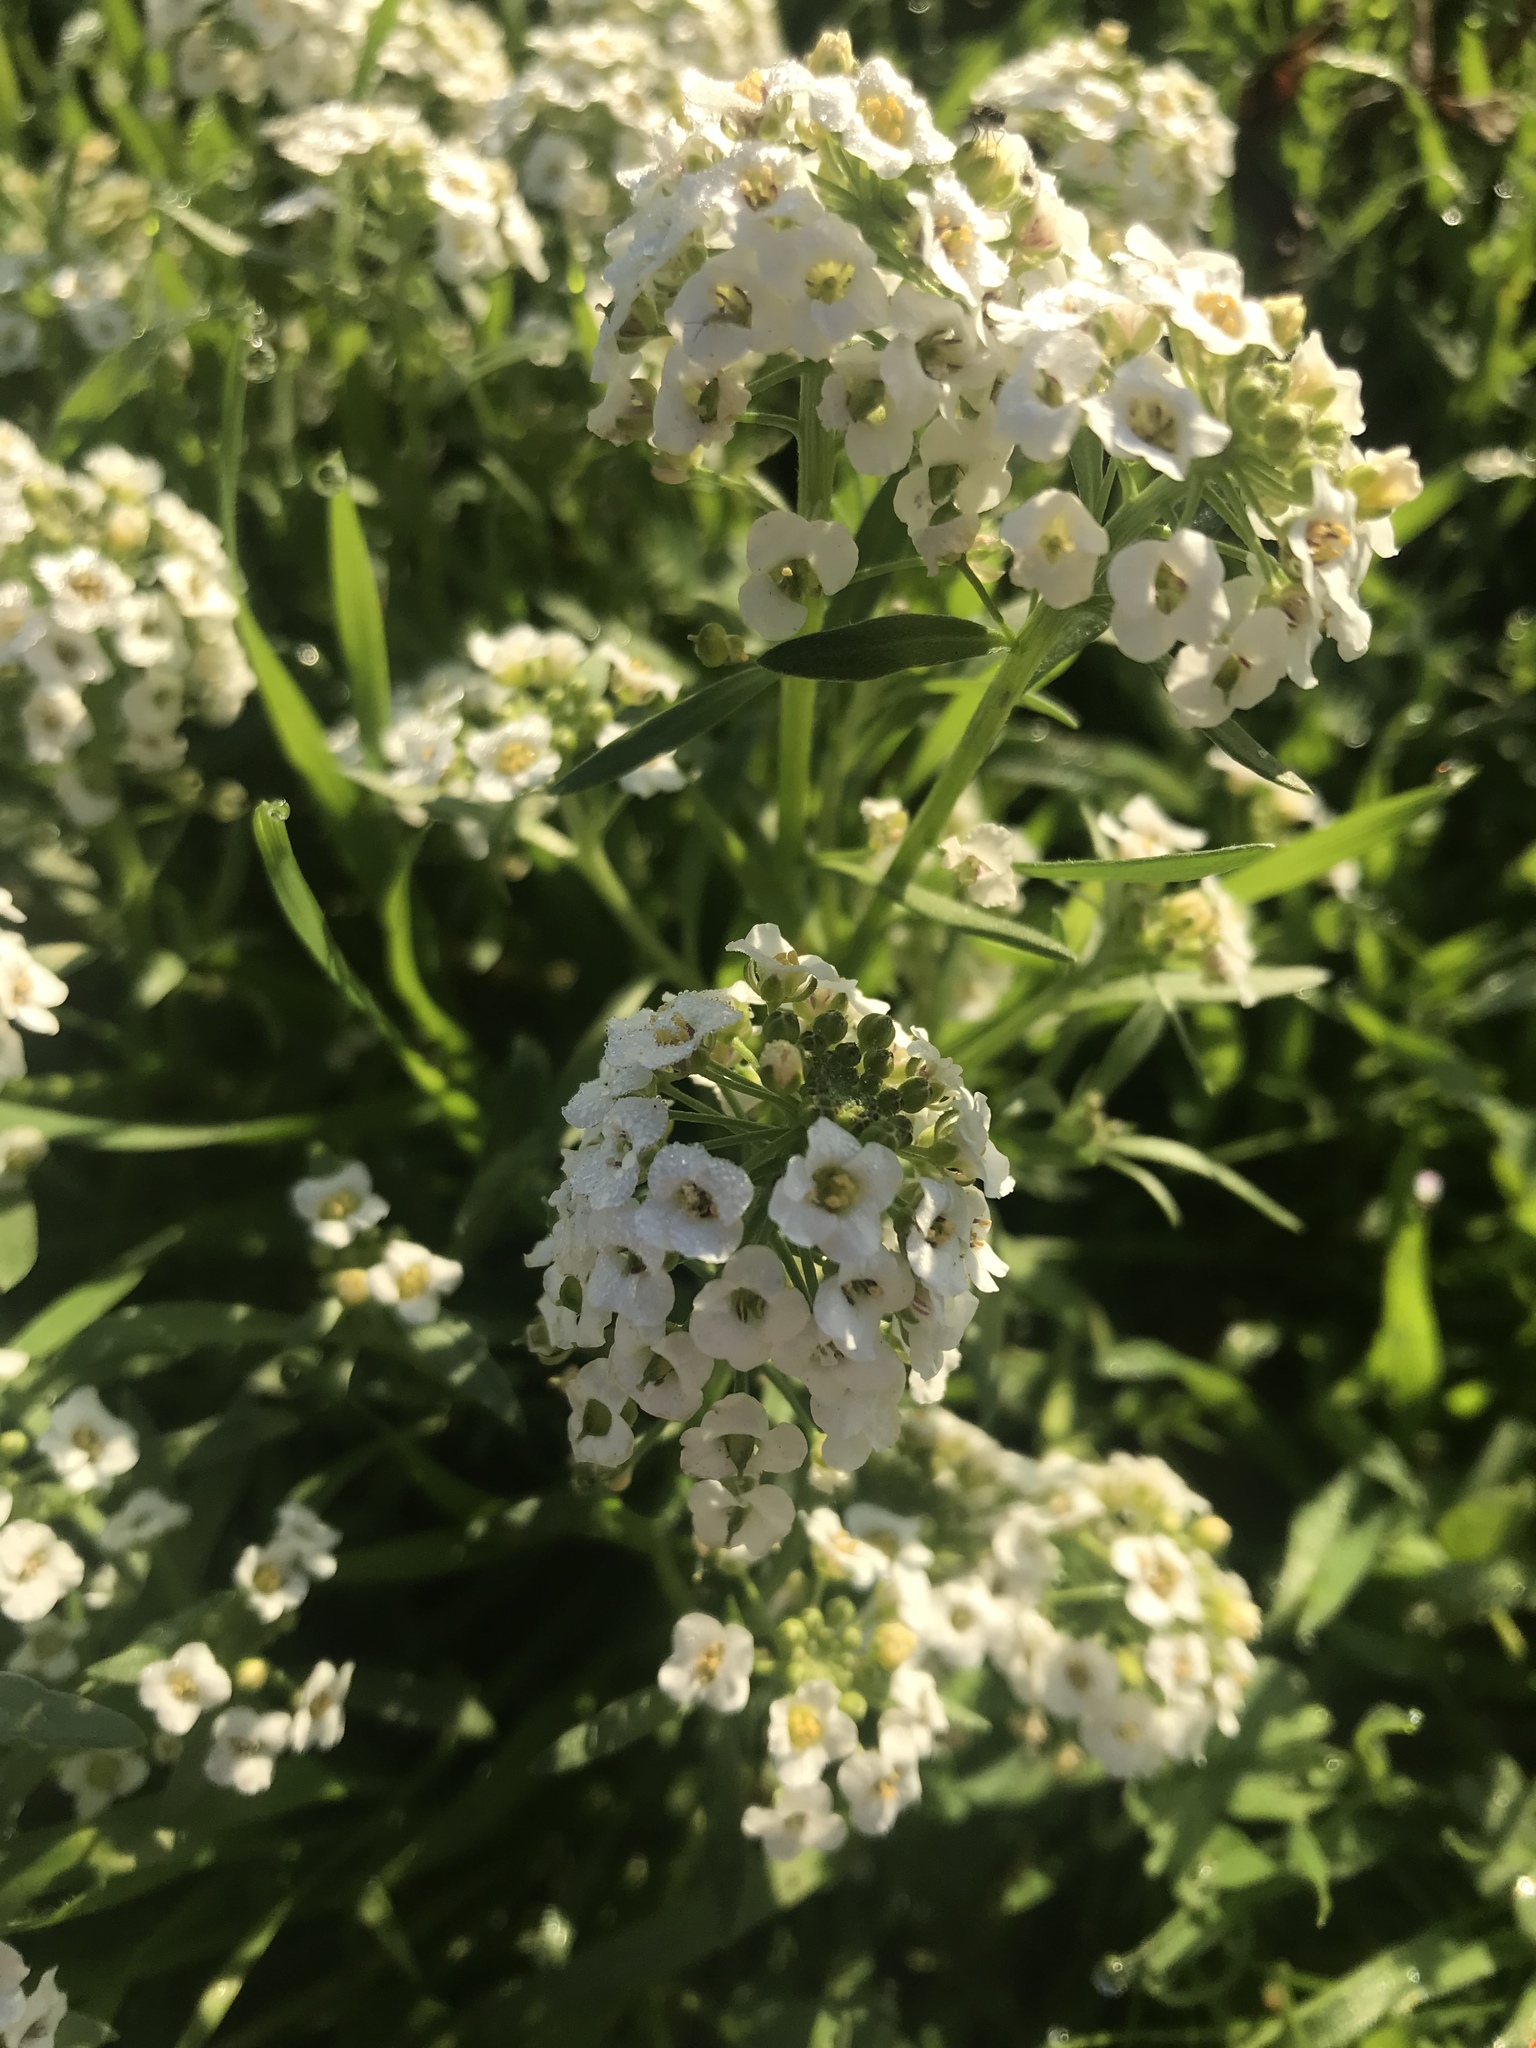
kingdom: Plantae
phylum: Tracheophyta
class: Magnoliopsida
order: Brassicales
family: Brassicaceae
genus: Lobularia
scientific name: Lobularia maritima
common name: Sweet alison
